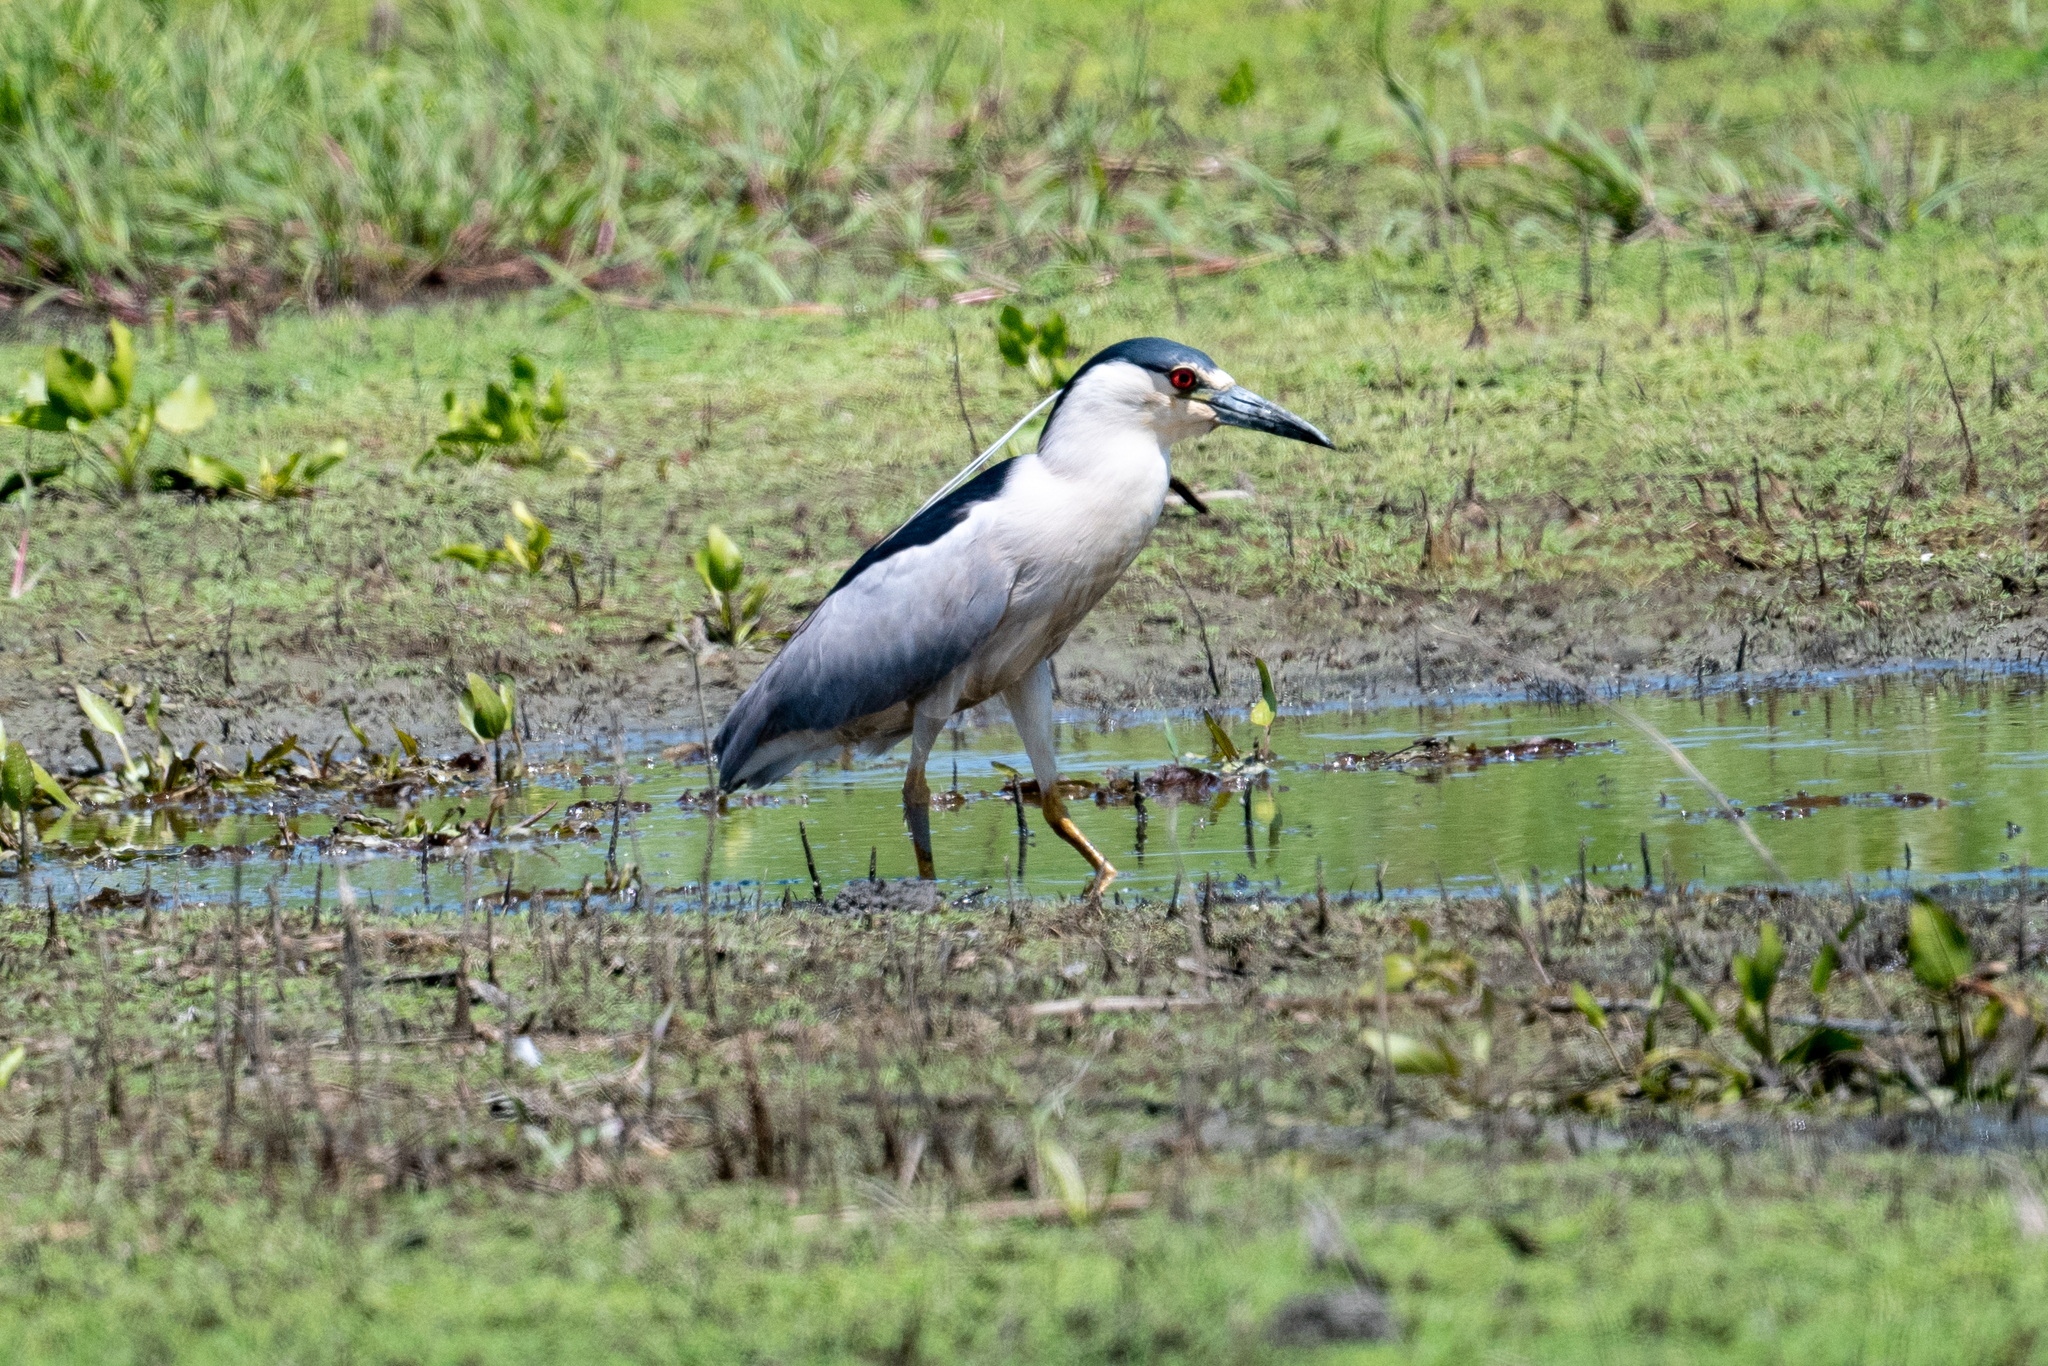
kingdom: Animalia
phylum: Chordata
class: Aves
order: Pelecaniformes
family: Ardeidae
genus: Nycticorax
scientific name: Nycticorax nycticorax
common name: Black-crowned night heron
